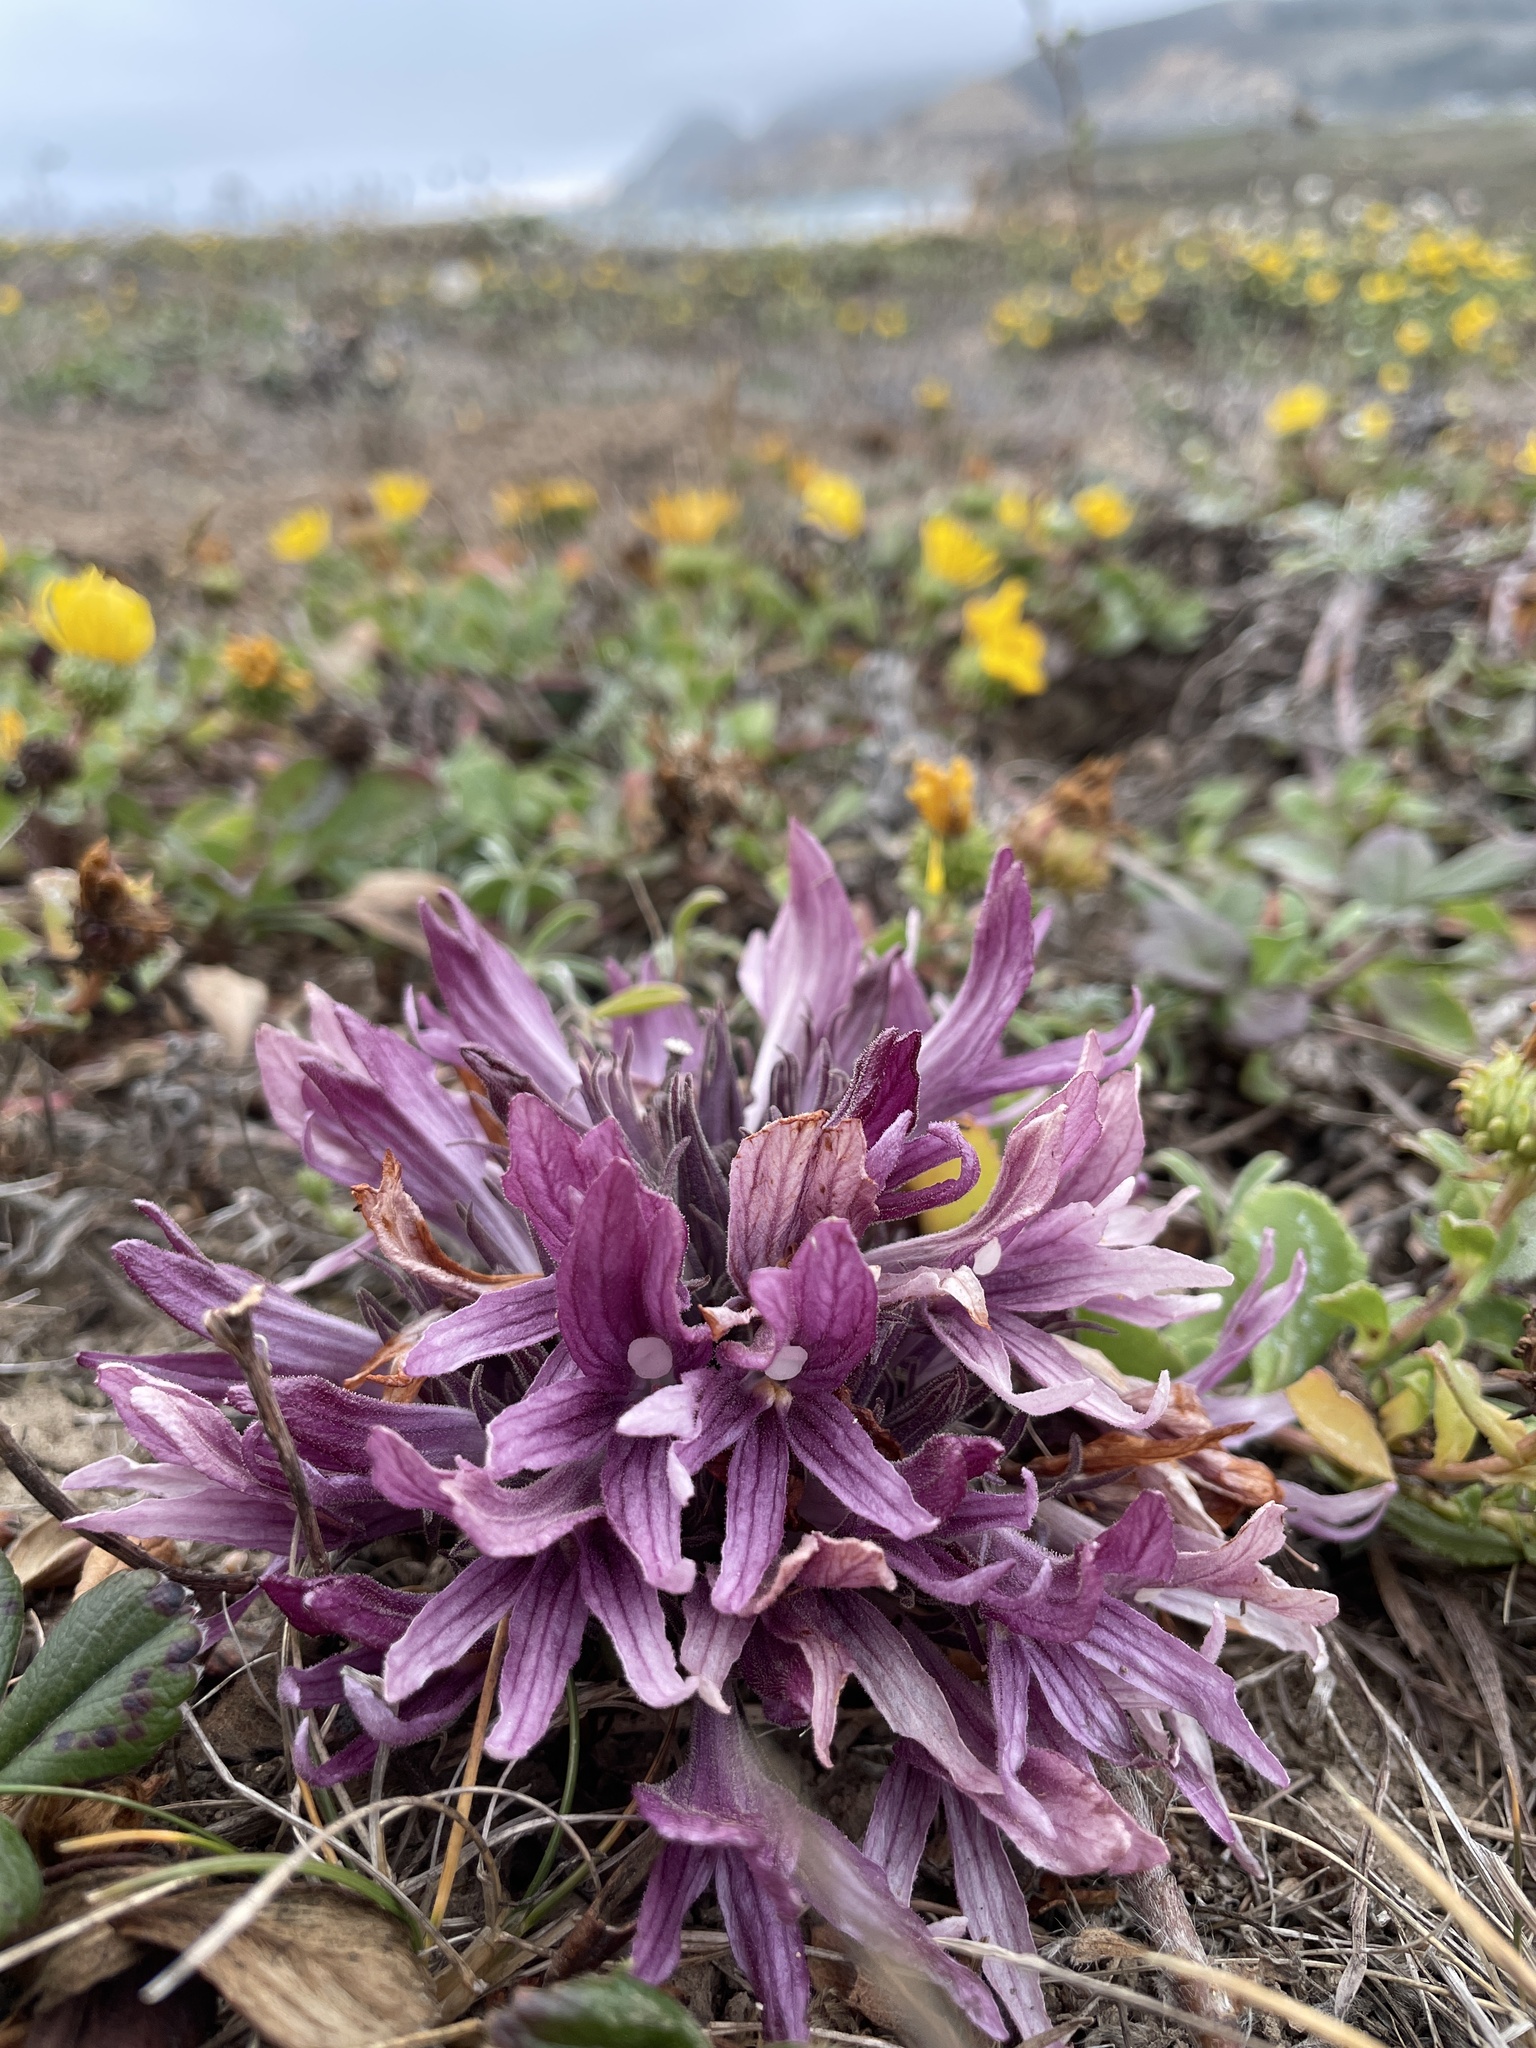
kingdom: Plantae
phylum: Tracheophyta
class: Magnoliopsida
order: Lamiales
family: Orobanchaceae
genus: Aphyllon
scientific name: Aphyllon californicum
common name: California broomrape
